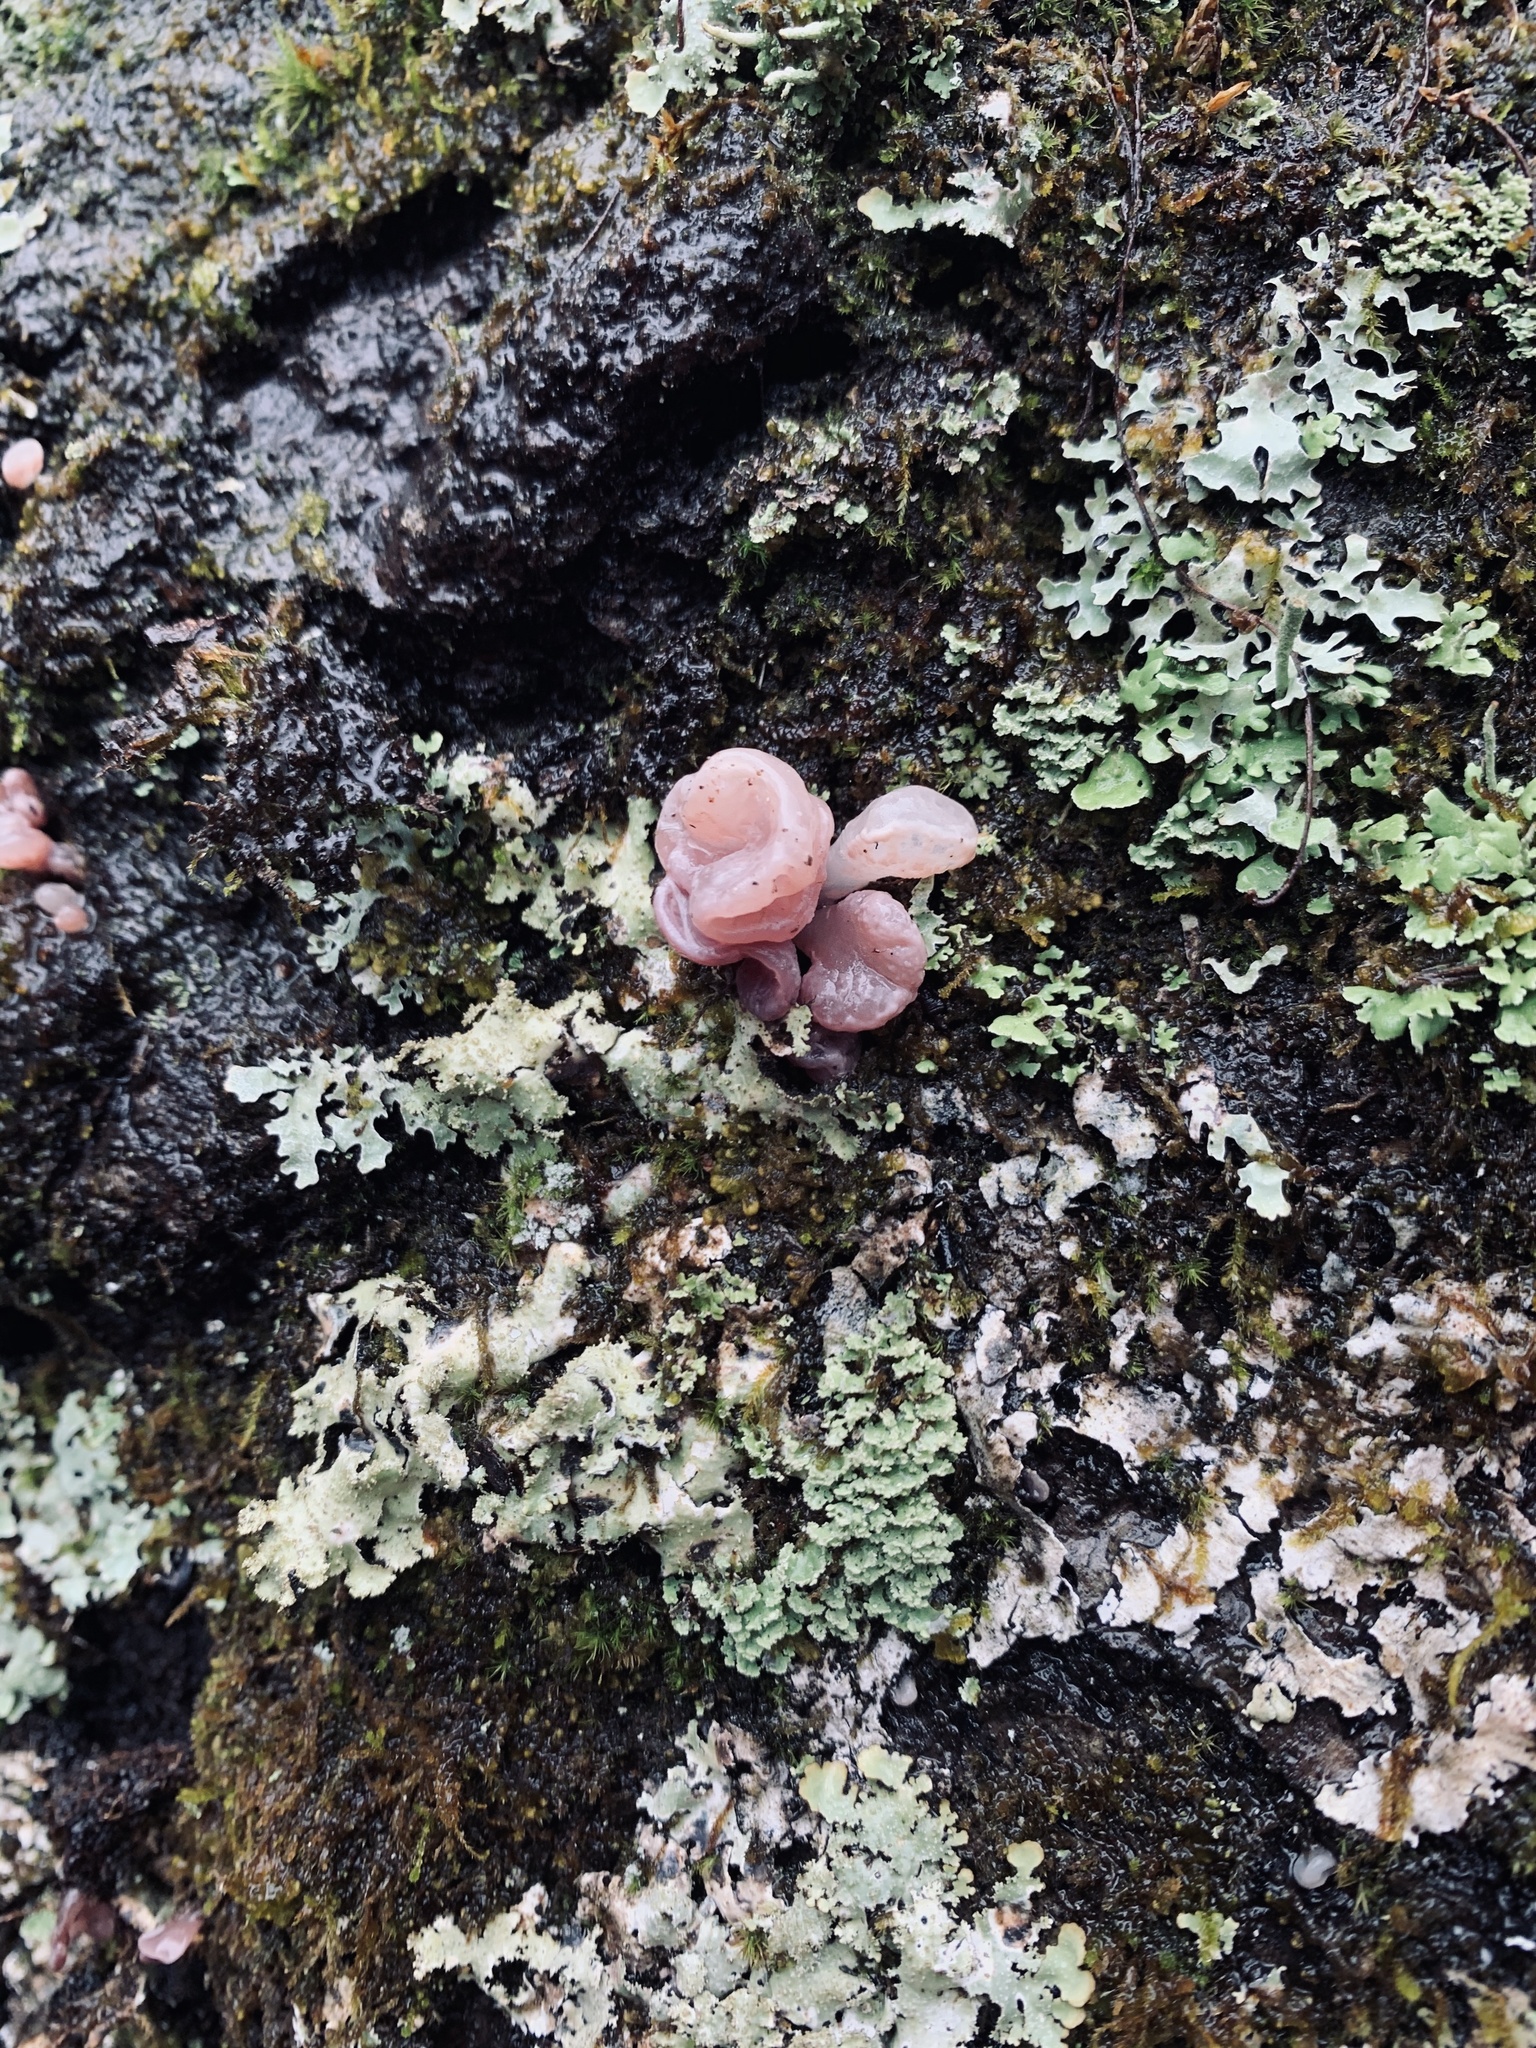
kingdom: Fungi
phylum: Ascomycota
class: Leotiomycetes
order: Helotiales
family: Gelatinodiscaceae
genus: Ascocoryne
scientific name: Ascocoryne sarcoides
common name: Purple jellydisc
